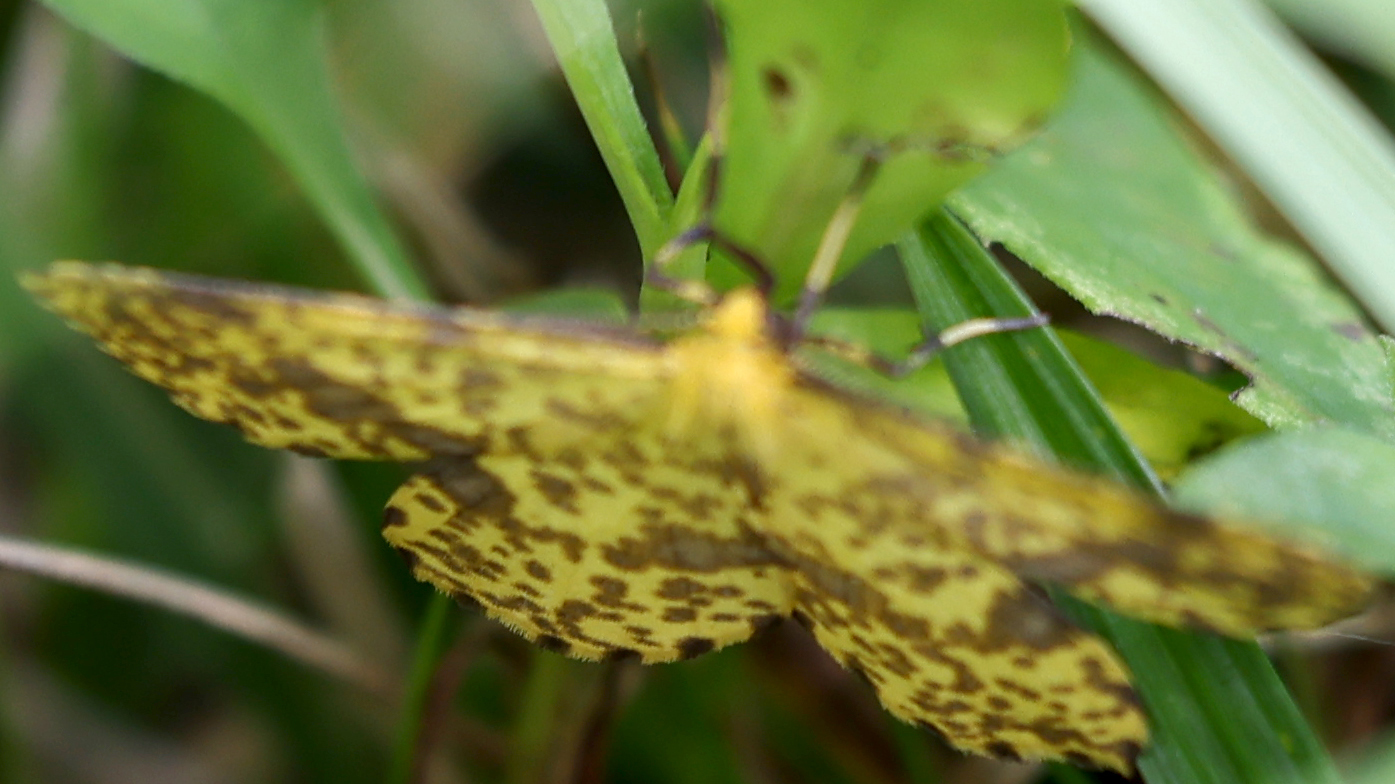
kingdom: Animalia
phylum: Arthropoda
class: Insecta
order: Lepidoptera
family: Geometridae
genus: Xanthotype
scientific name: Xanthotype
